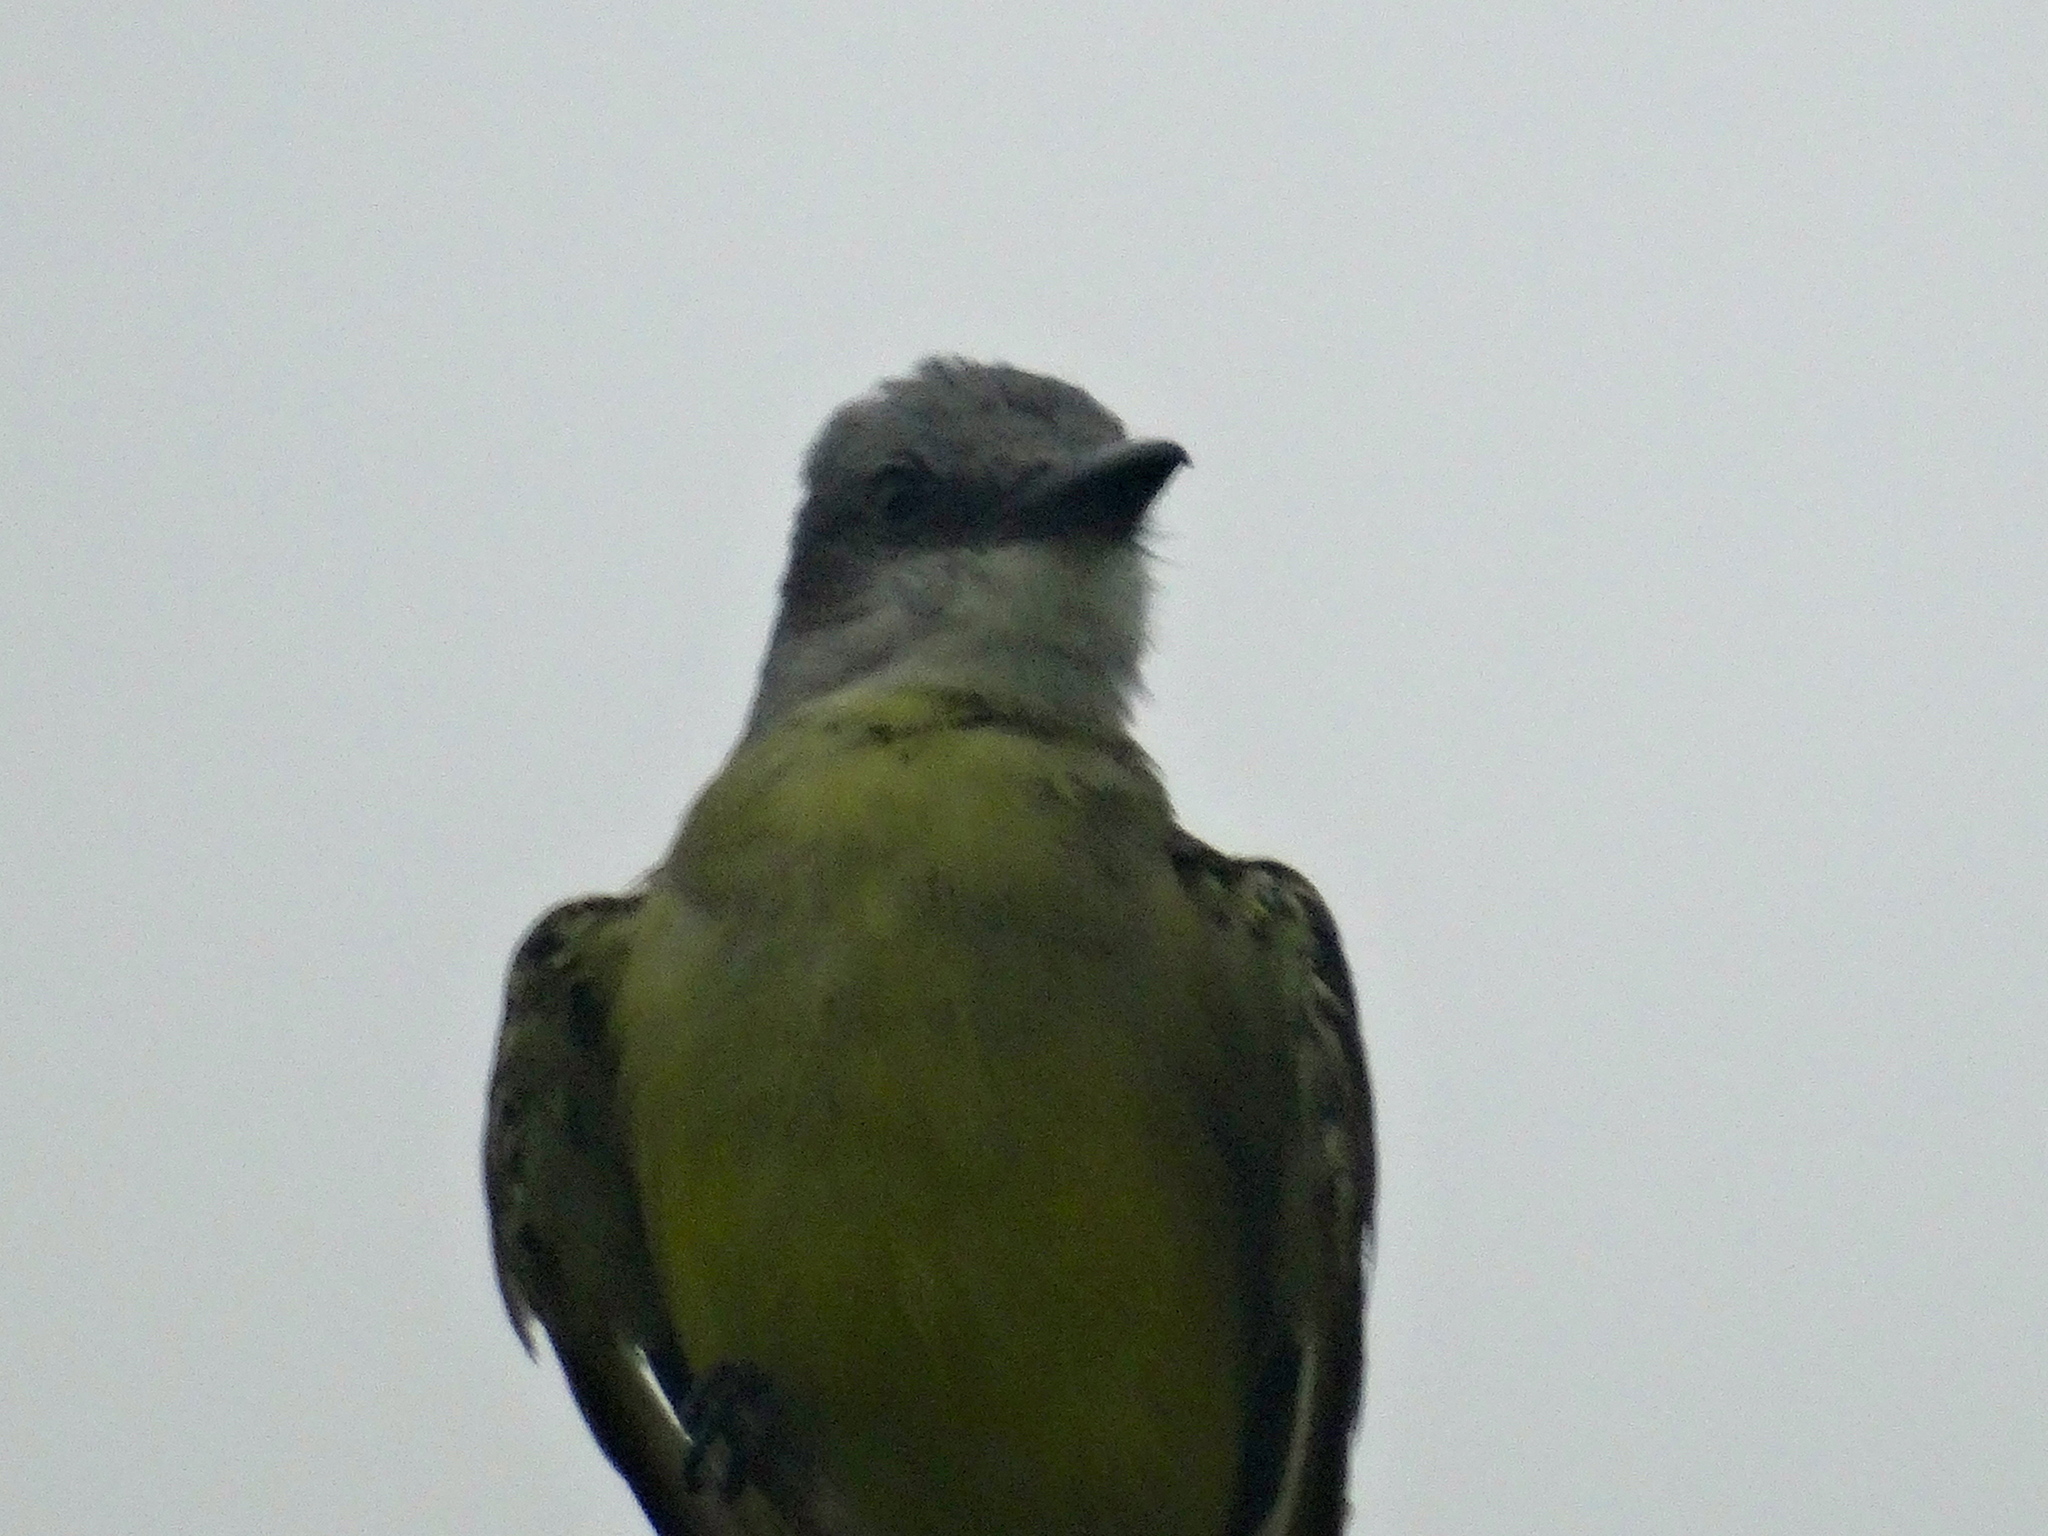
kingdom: Animalia
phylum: Chordata
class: Aves
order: Passeriformes
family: Tyrannidae
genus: Tyrannus
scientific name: Tyrannus melancholicus
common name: Tropical kingbird
